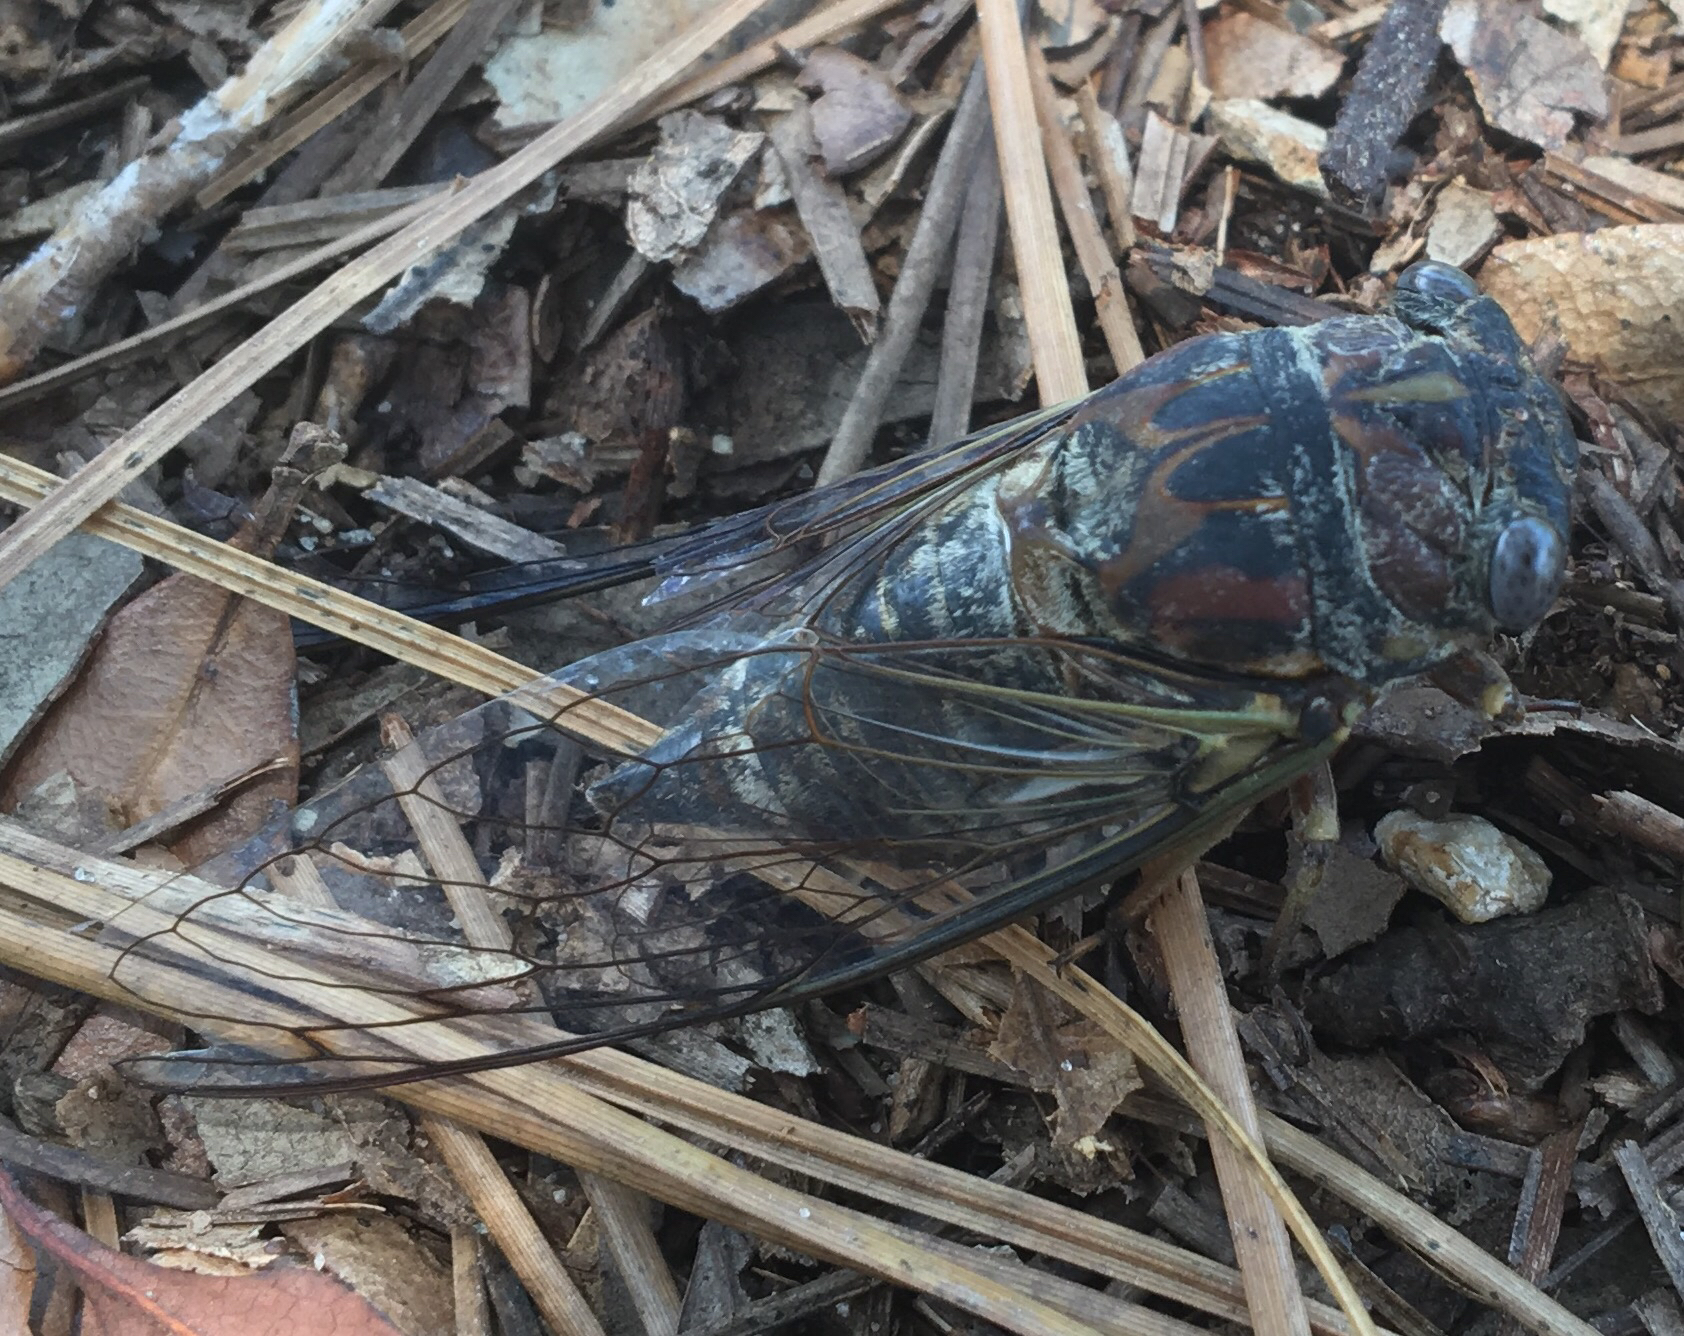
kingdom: Animalia
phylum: Arthropoda
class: Insecta
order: Hemiptera
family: Cicadidae
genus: Neotibicen
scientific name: Neotibicen similaris
